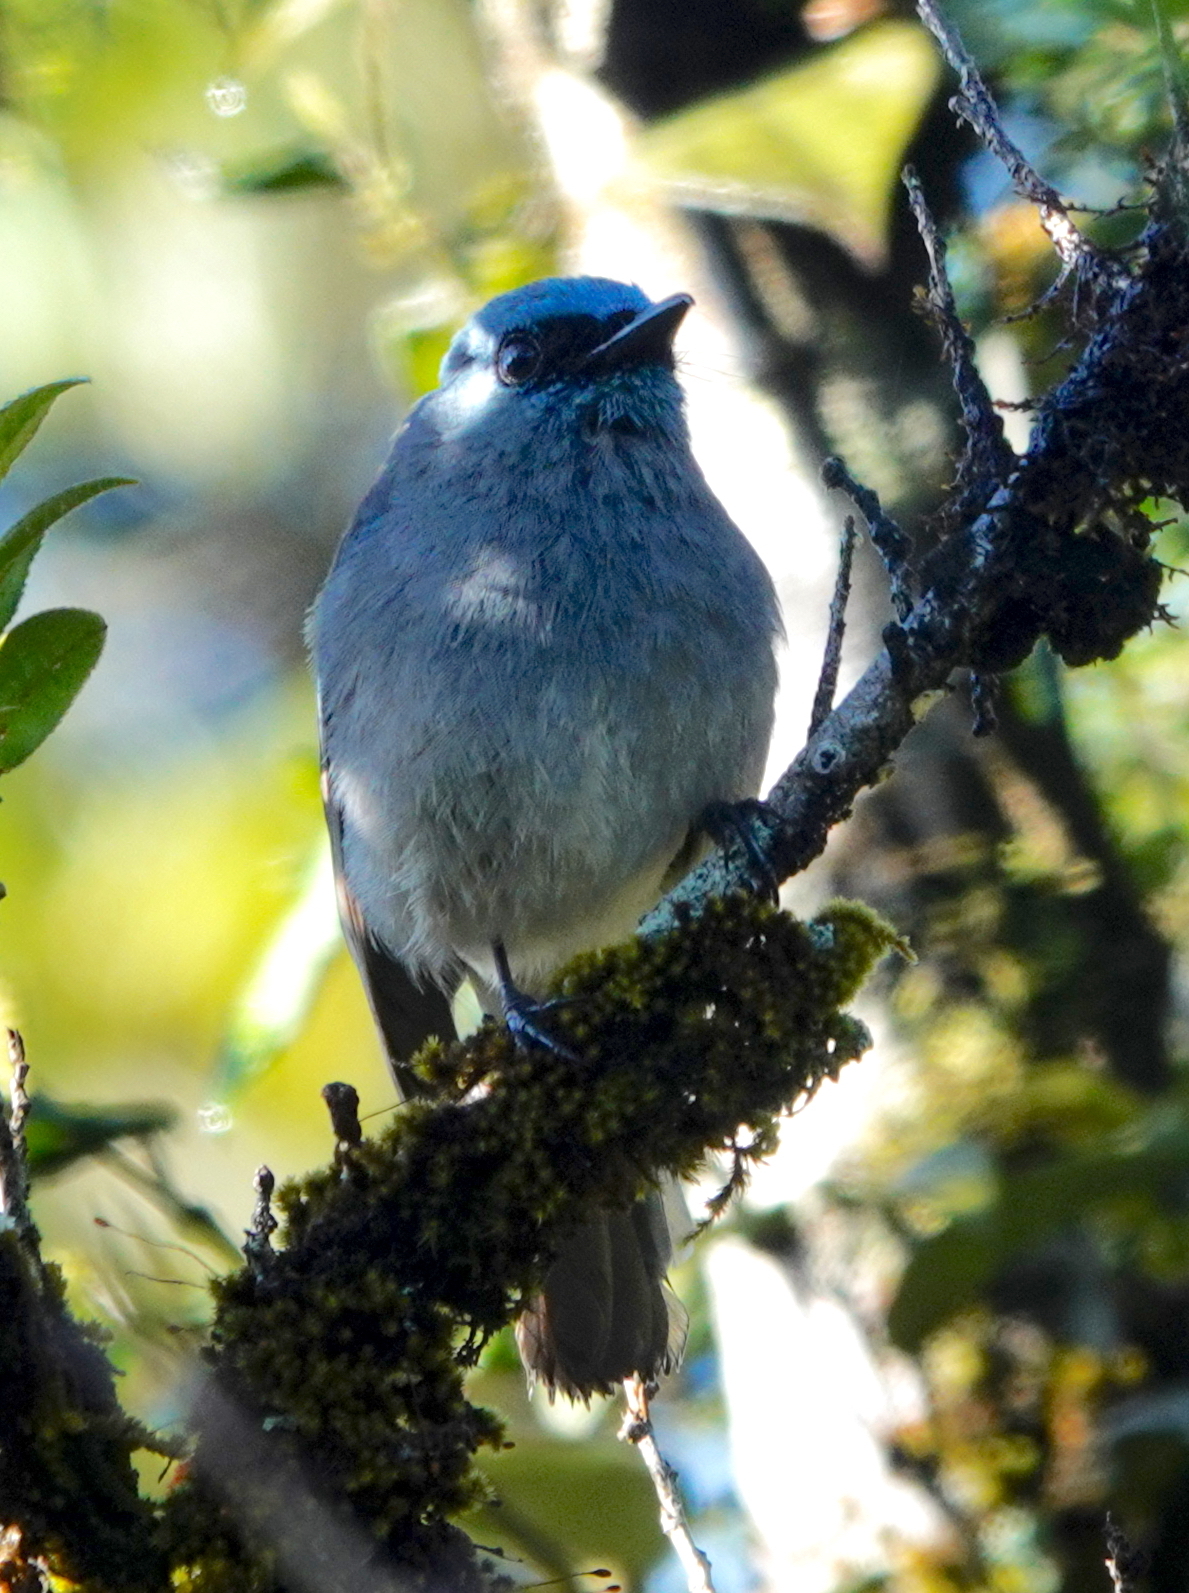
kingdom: Animalia
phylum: Chordata
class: Aves
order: Passeriformes
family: Muscicapidae
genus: Eumyias
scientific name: Eumyias sordidus
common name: Dull-blue flycatcher
